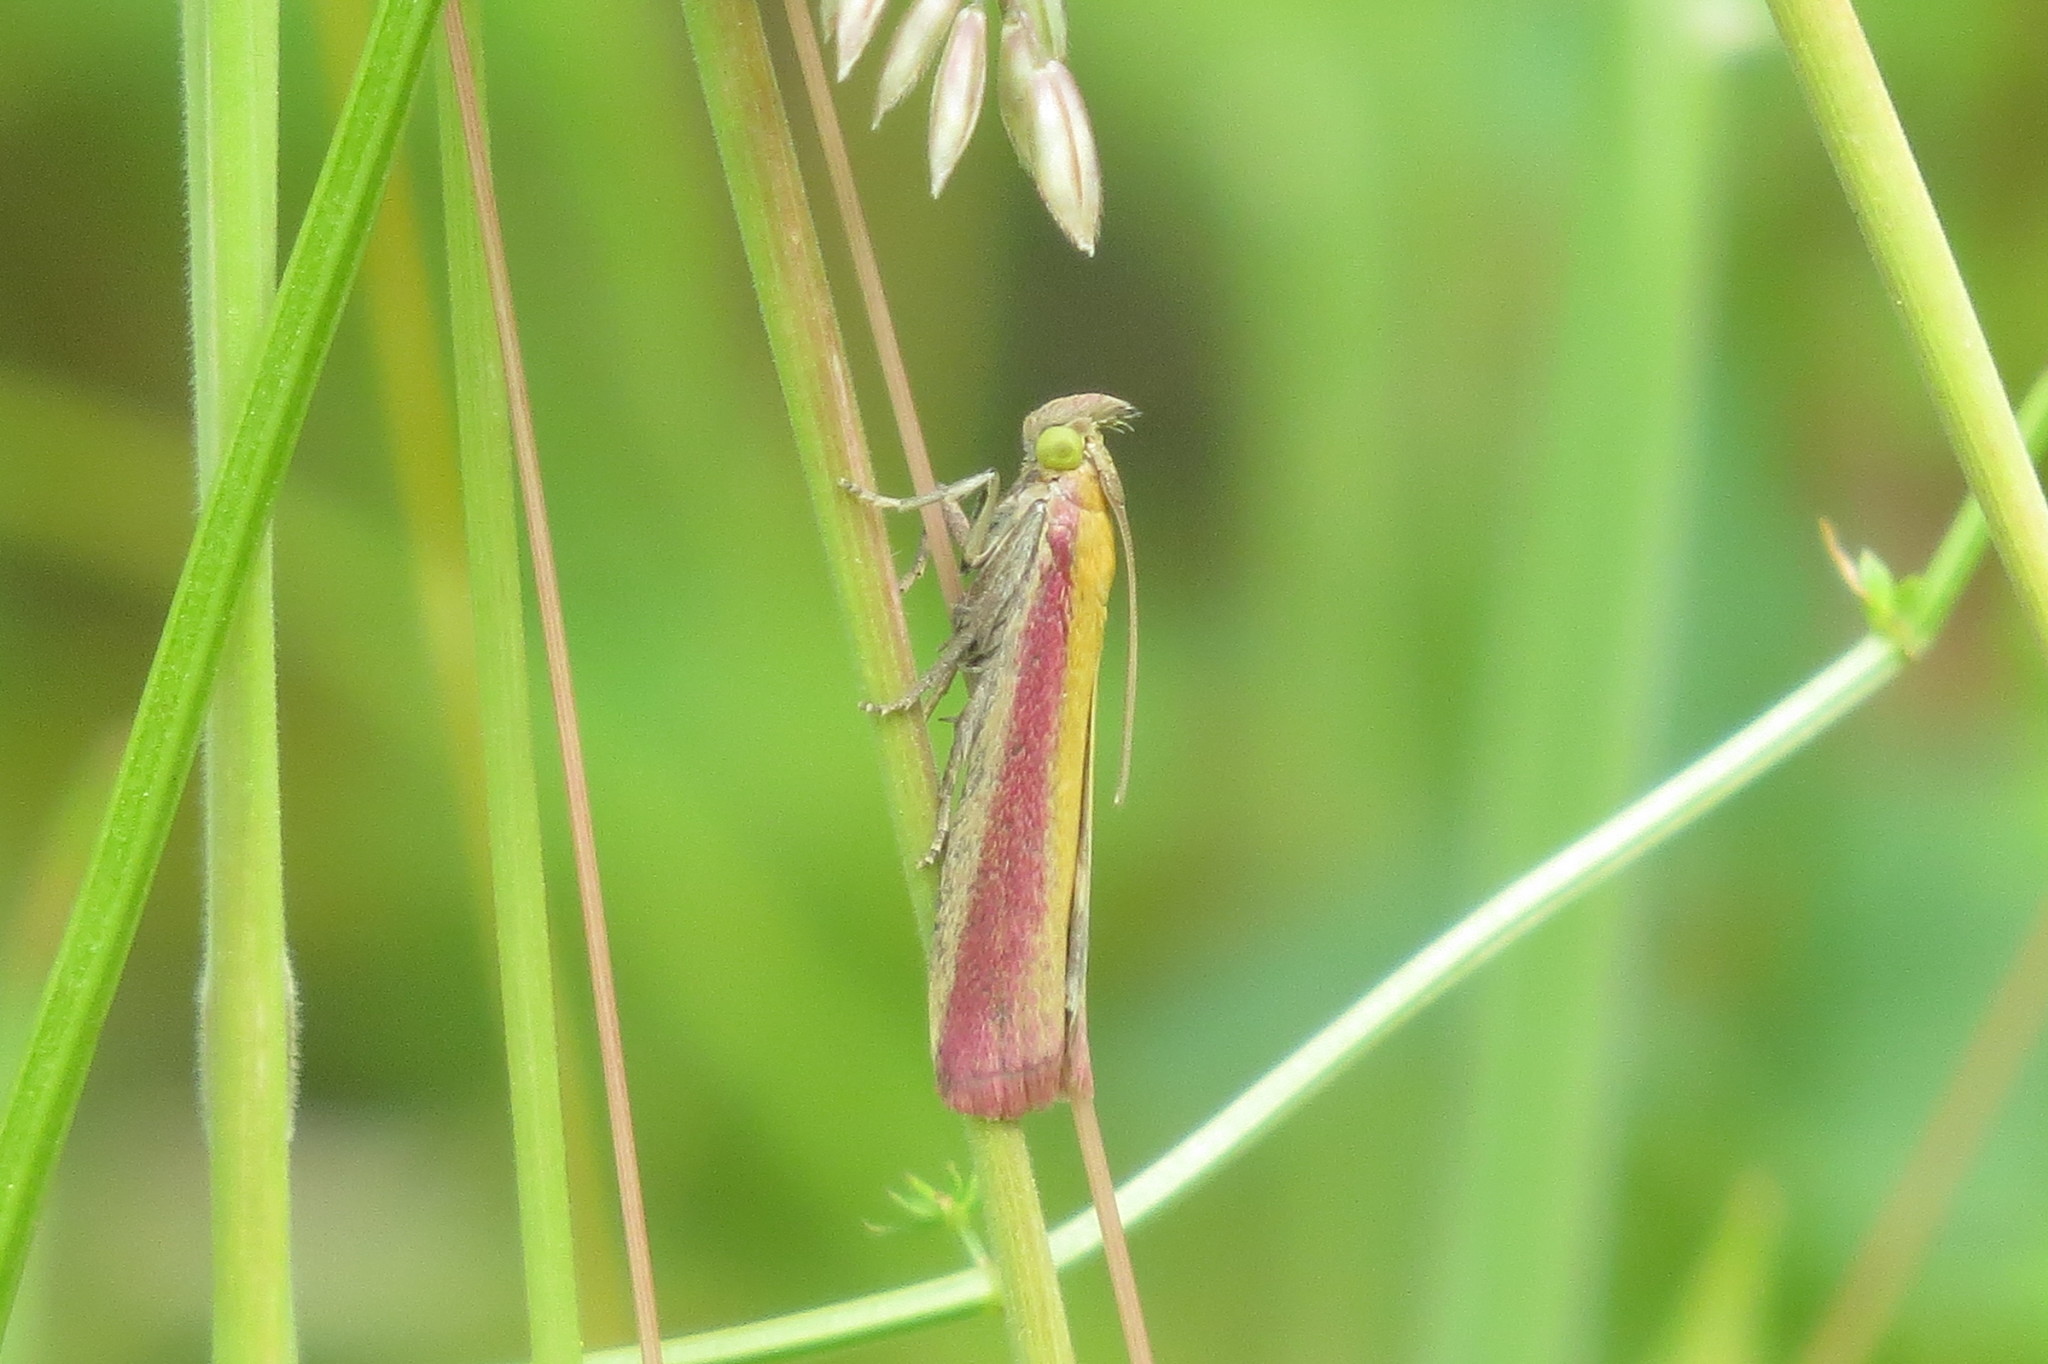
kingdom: Animalia
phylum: Arthropoda
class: Insecta
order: Lepidoptera
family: Pyralidae
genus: Oncocera
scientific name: Oncocera semirubella
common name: Rosy-striped knot-horn
